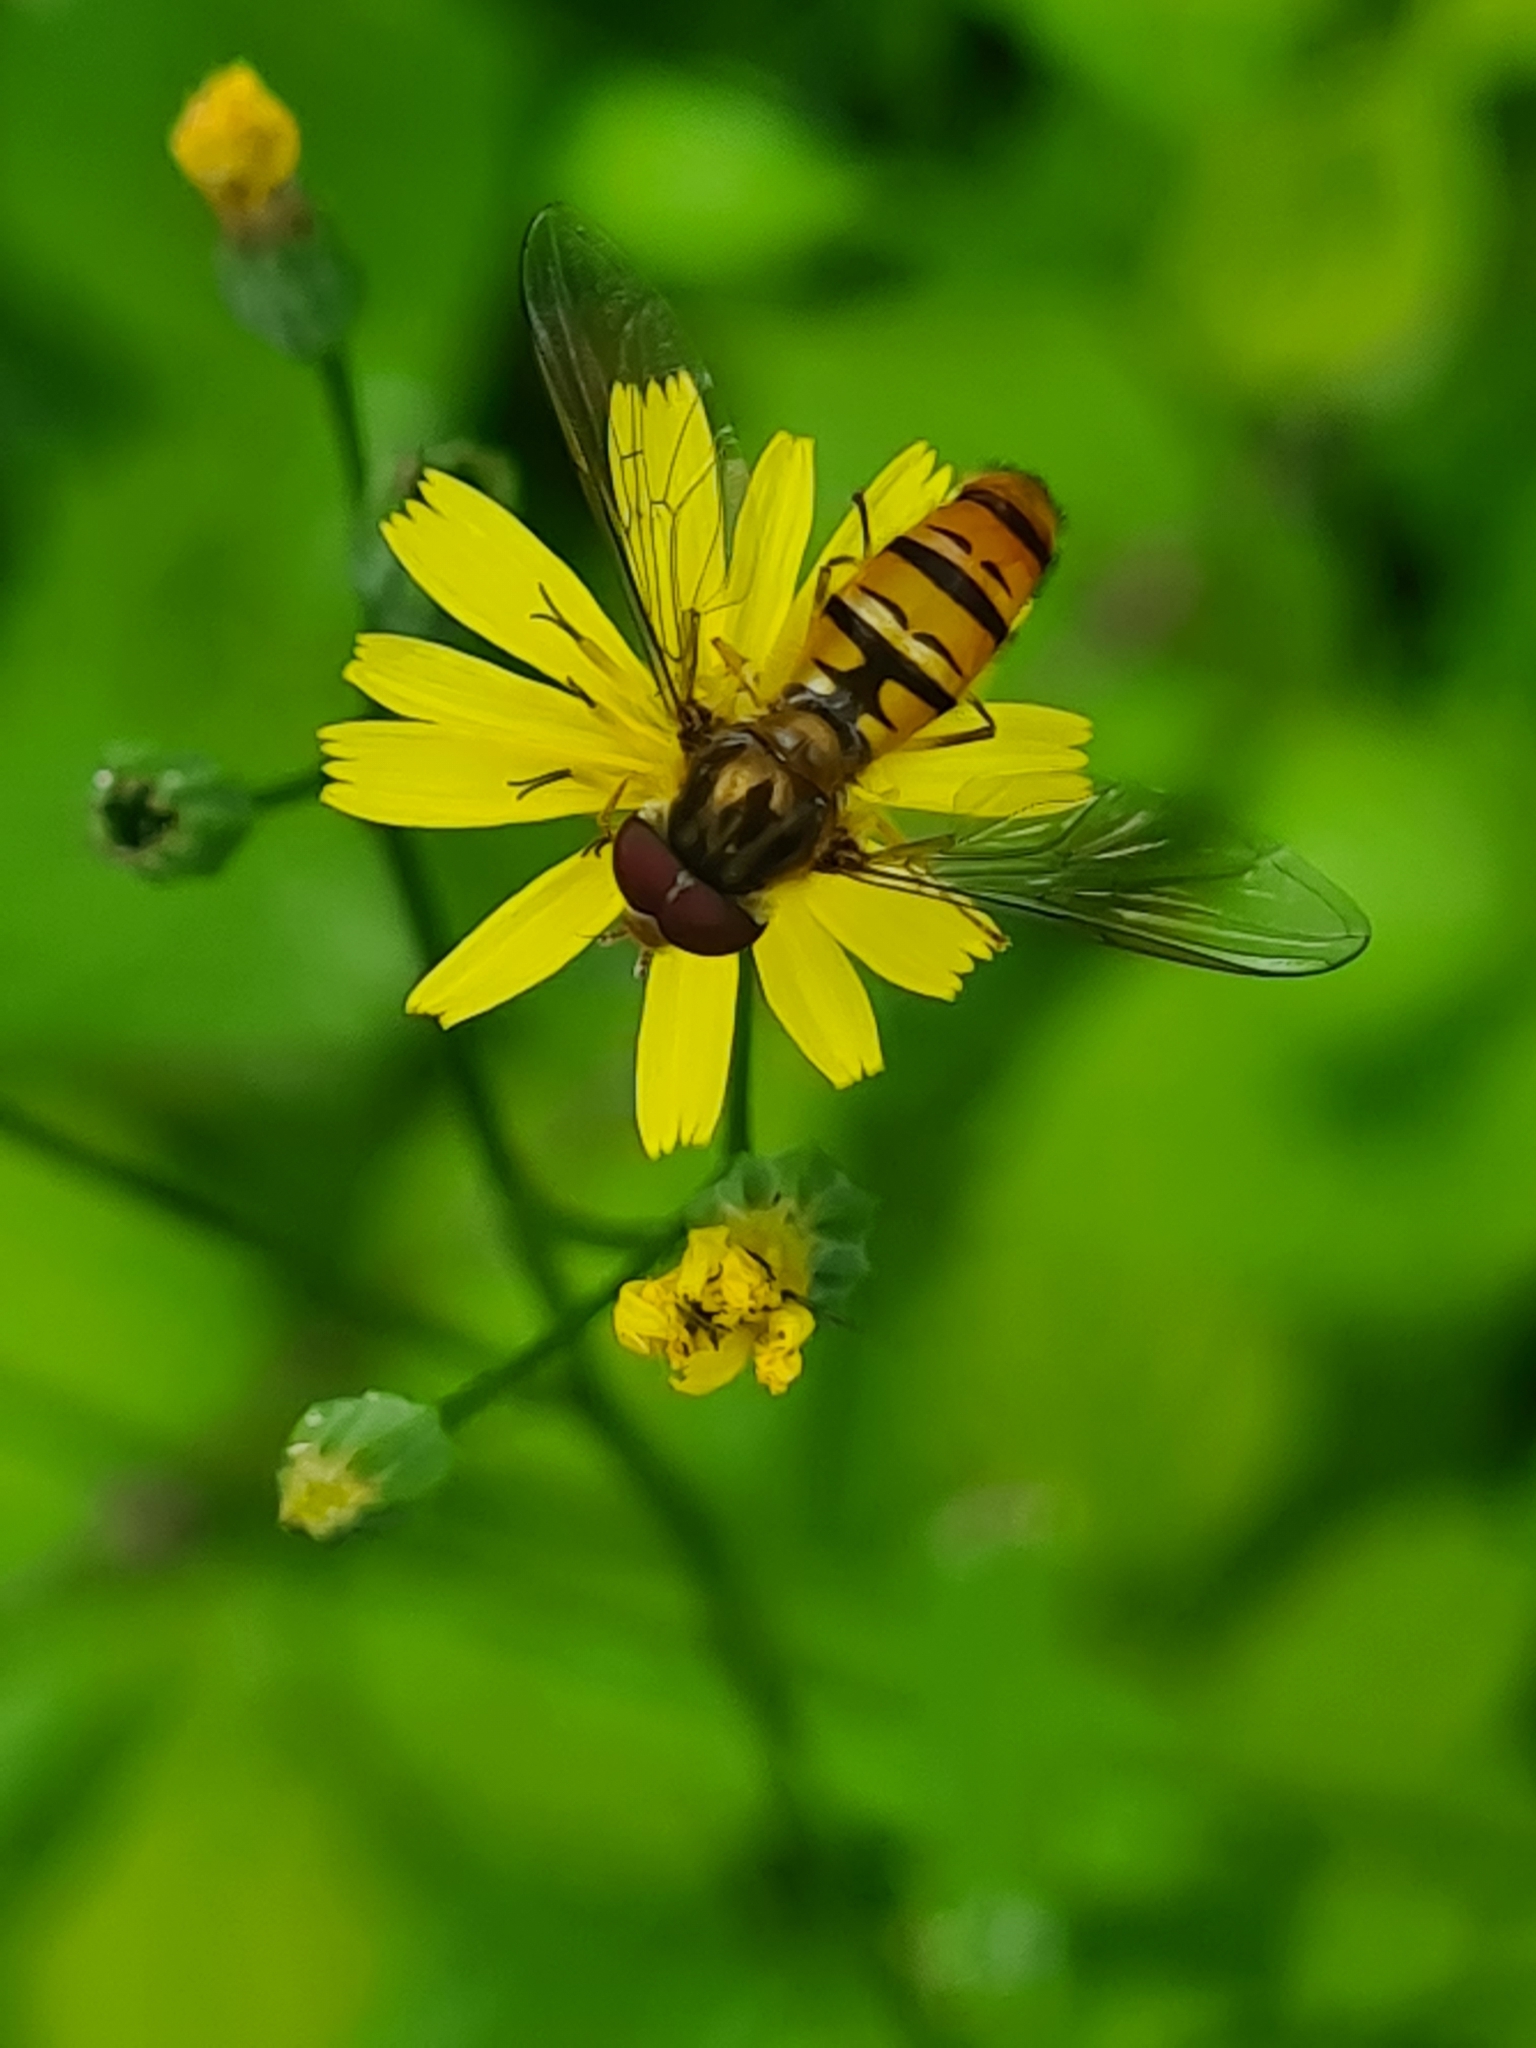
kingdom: Animalia
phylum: Arthropoda
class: Insecta
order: Diptera
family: Syrphidae
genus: Episyrphus
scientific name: Episyrphus balteatus
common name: Marmalade hoverfly
